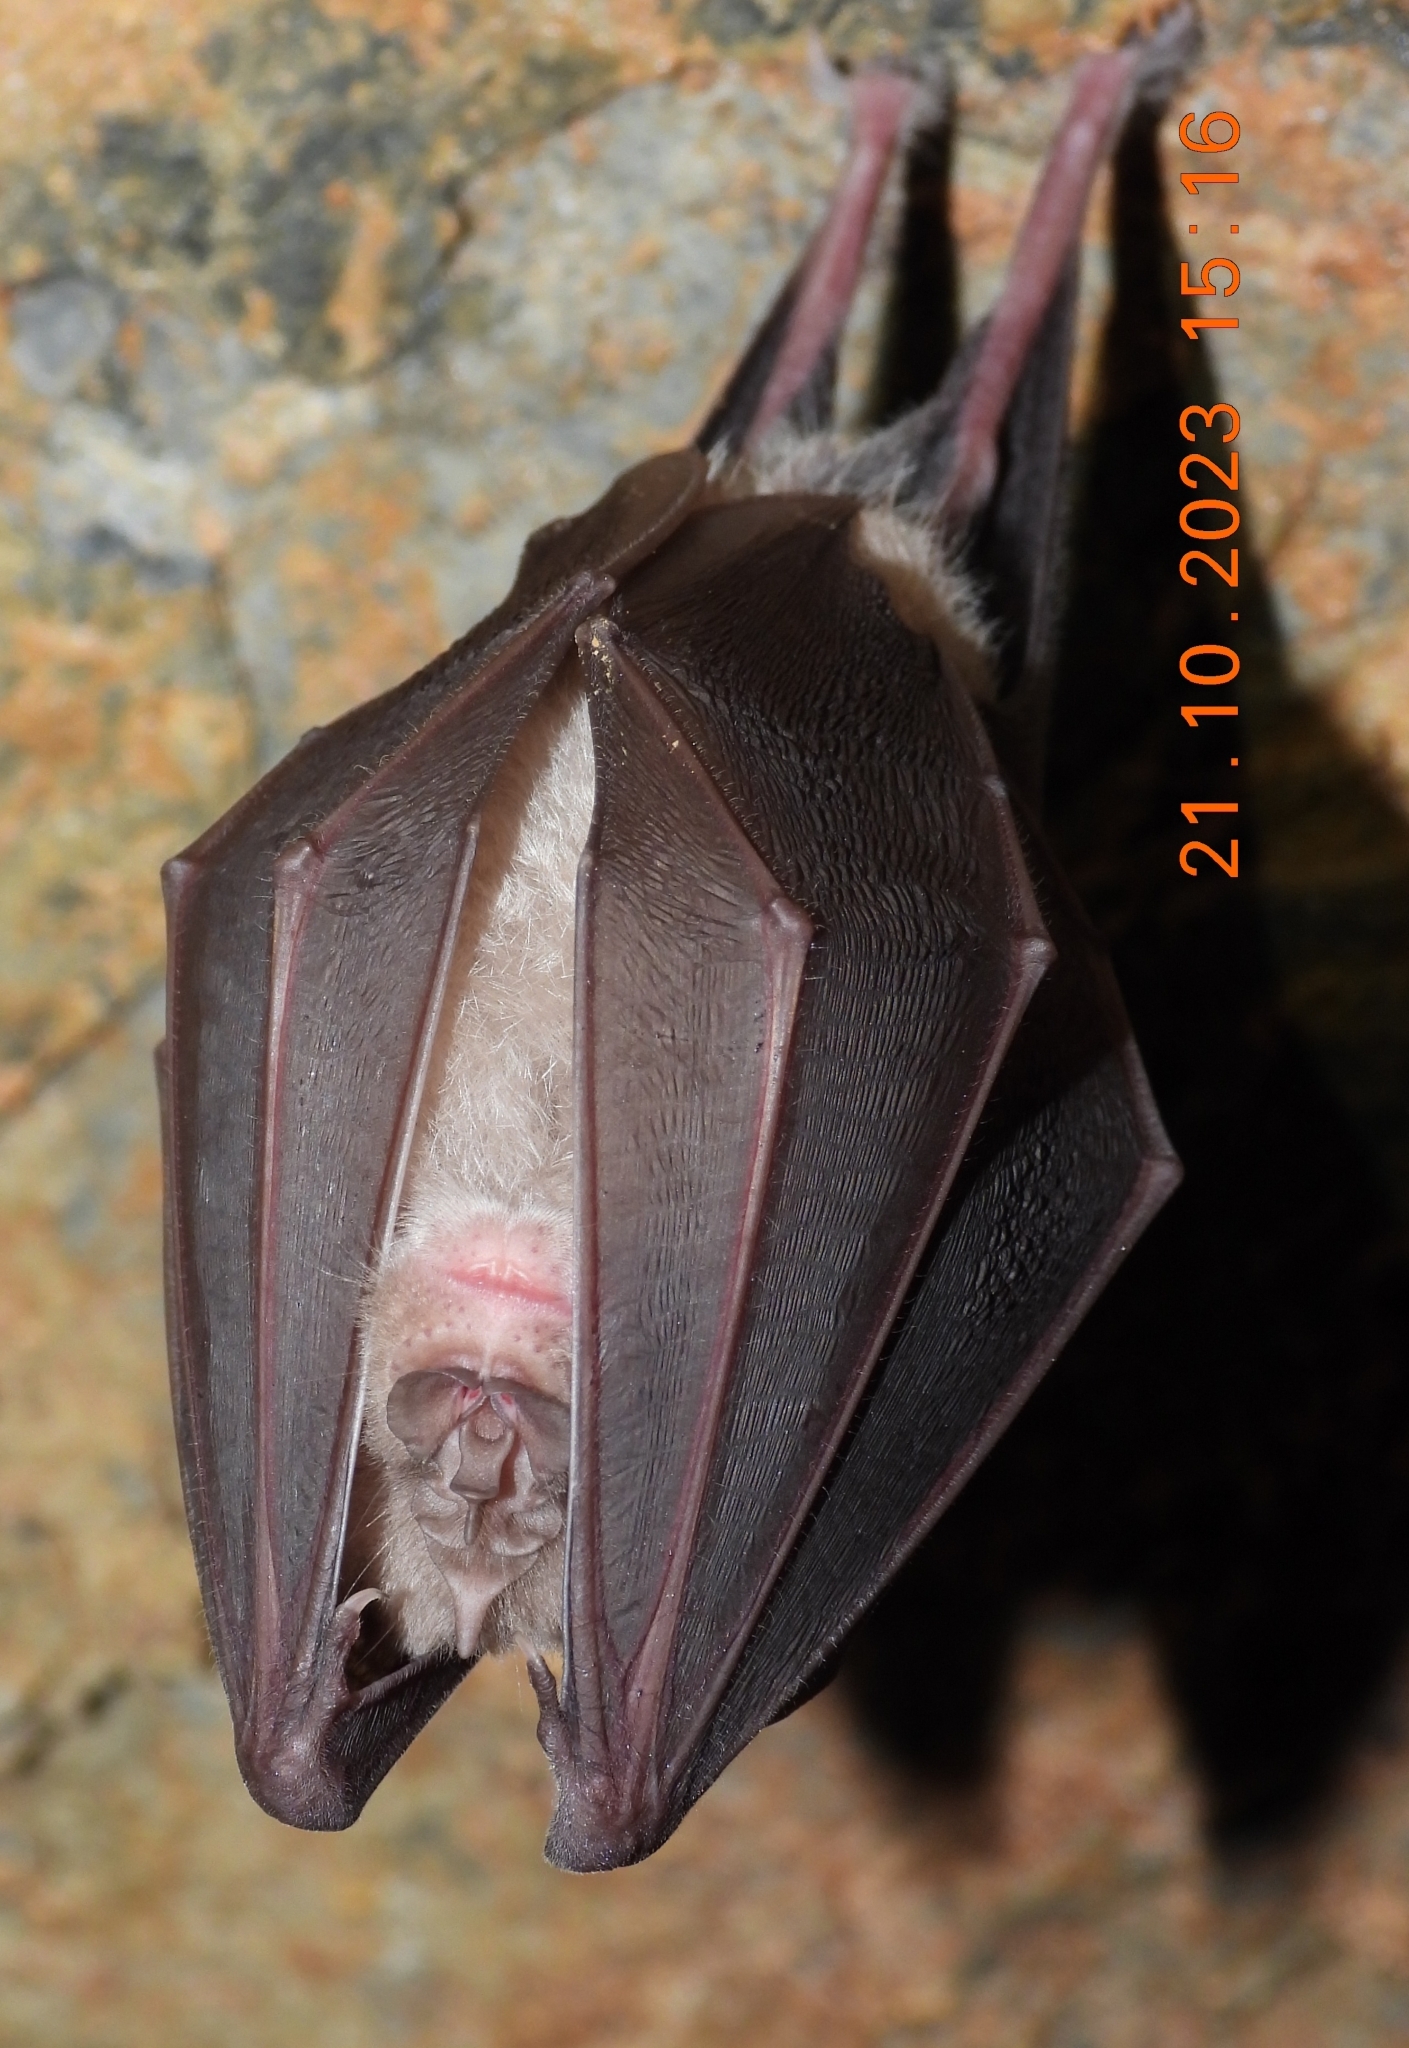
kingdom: Animalia
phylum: Chordata
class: Mammalia
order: Chiroptera
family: Rhinolophidae
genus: Rhinolophus
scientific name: Rhinolophus ferrumequinum
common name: Greater horseshoe bat
